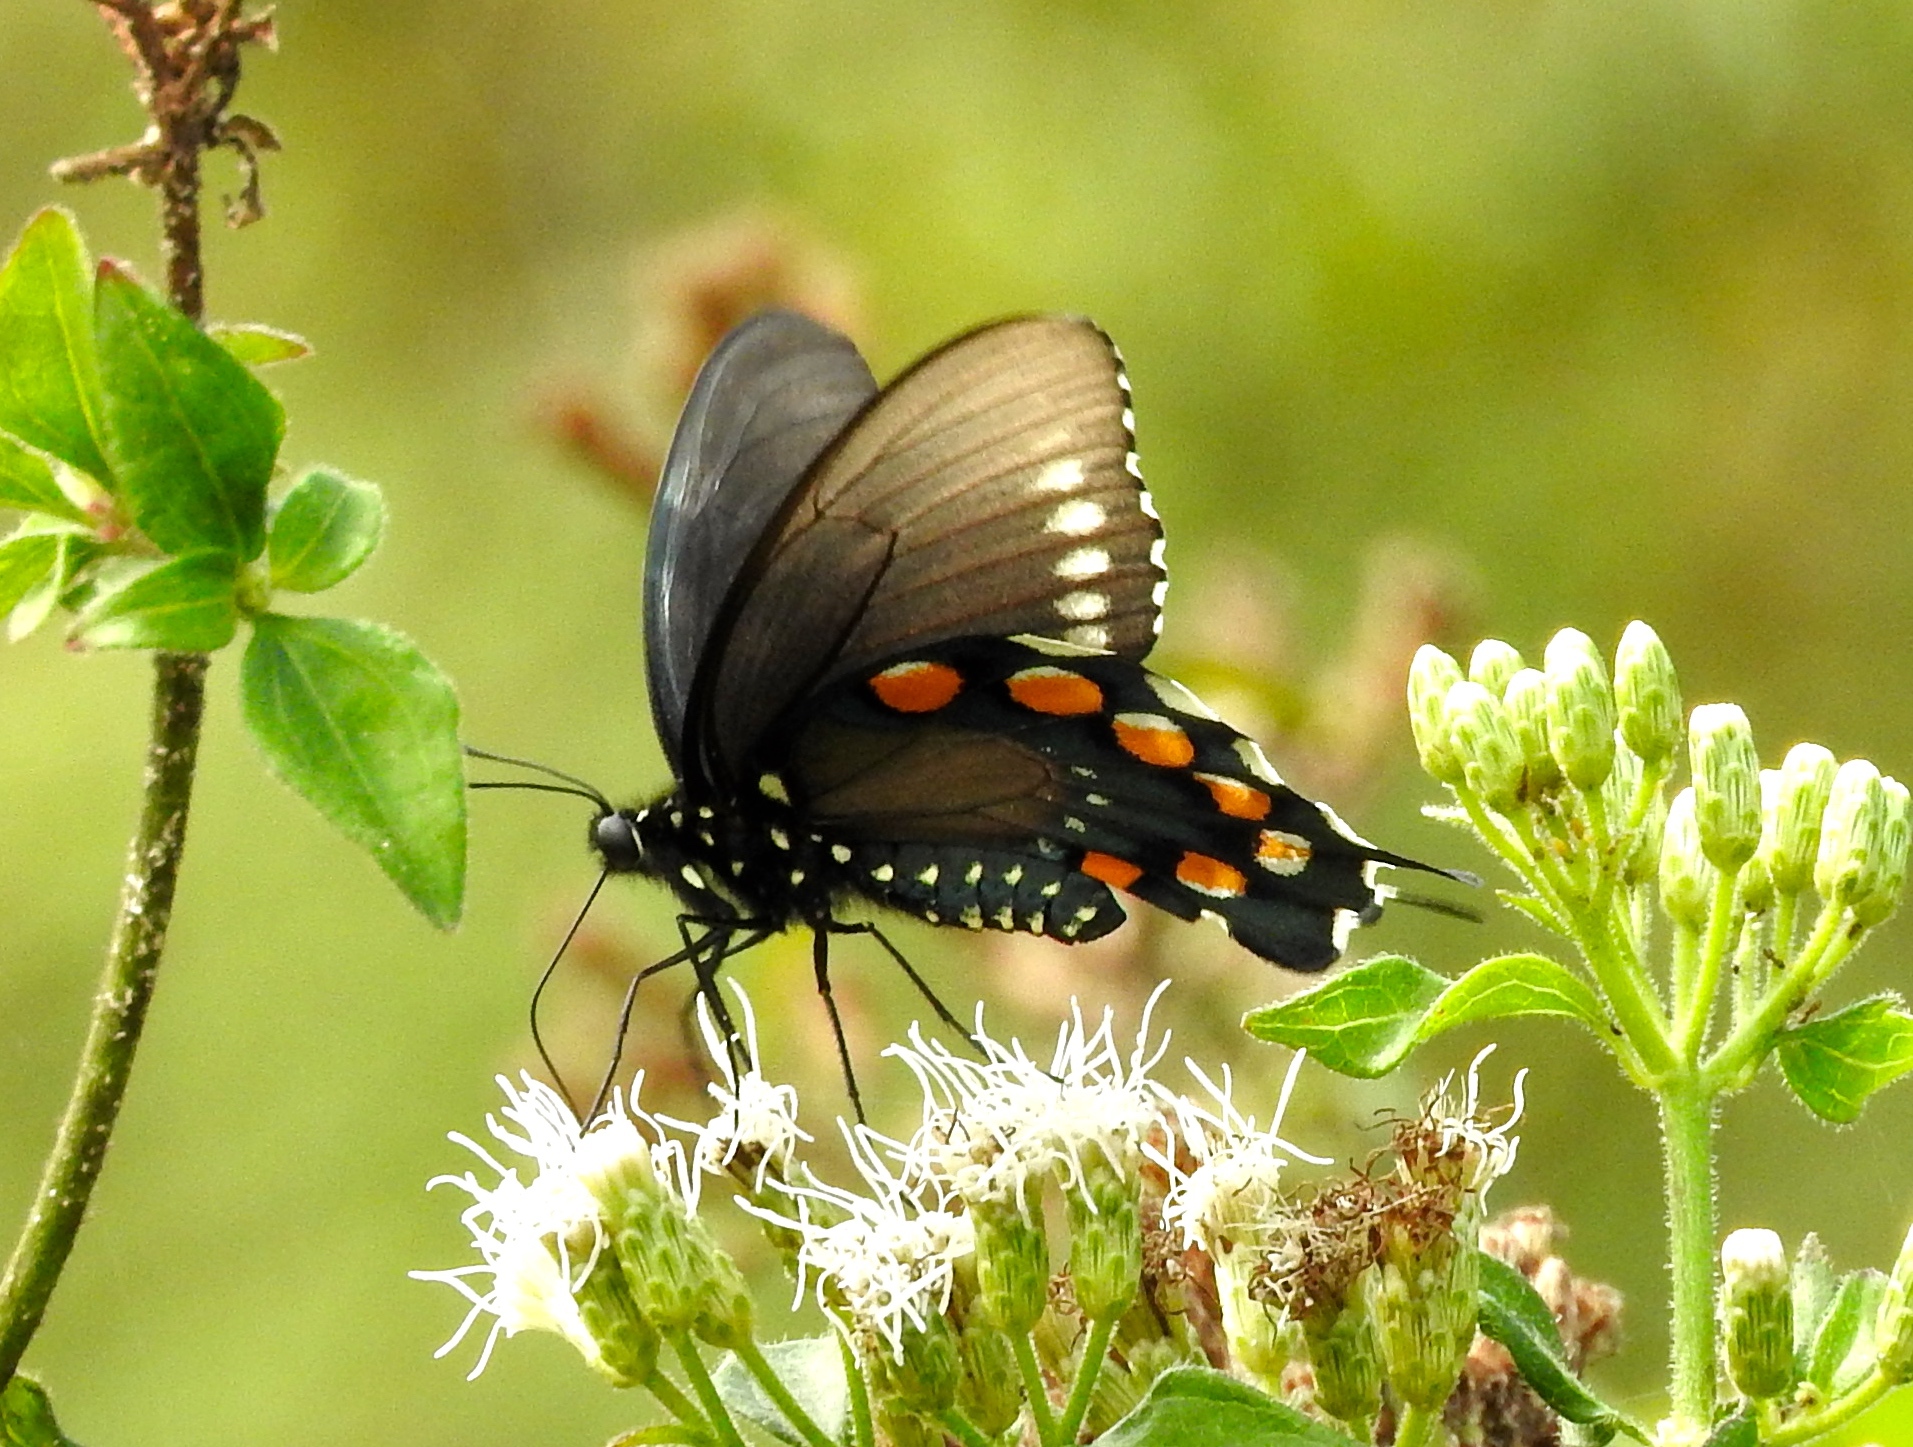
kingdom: Animalia
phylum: Arthropoda
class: Insecta
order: Lepidoptera
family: Papilionidae
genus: Battus
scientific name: Battus philenor
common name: Pipevine swallowtail
